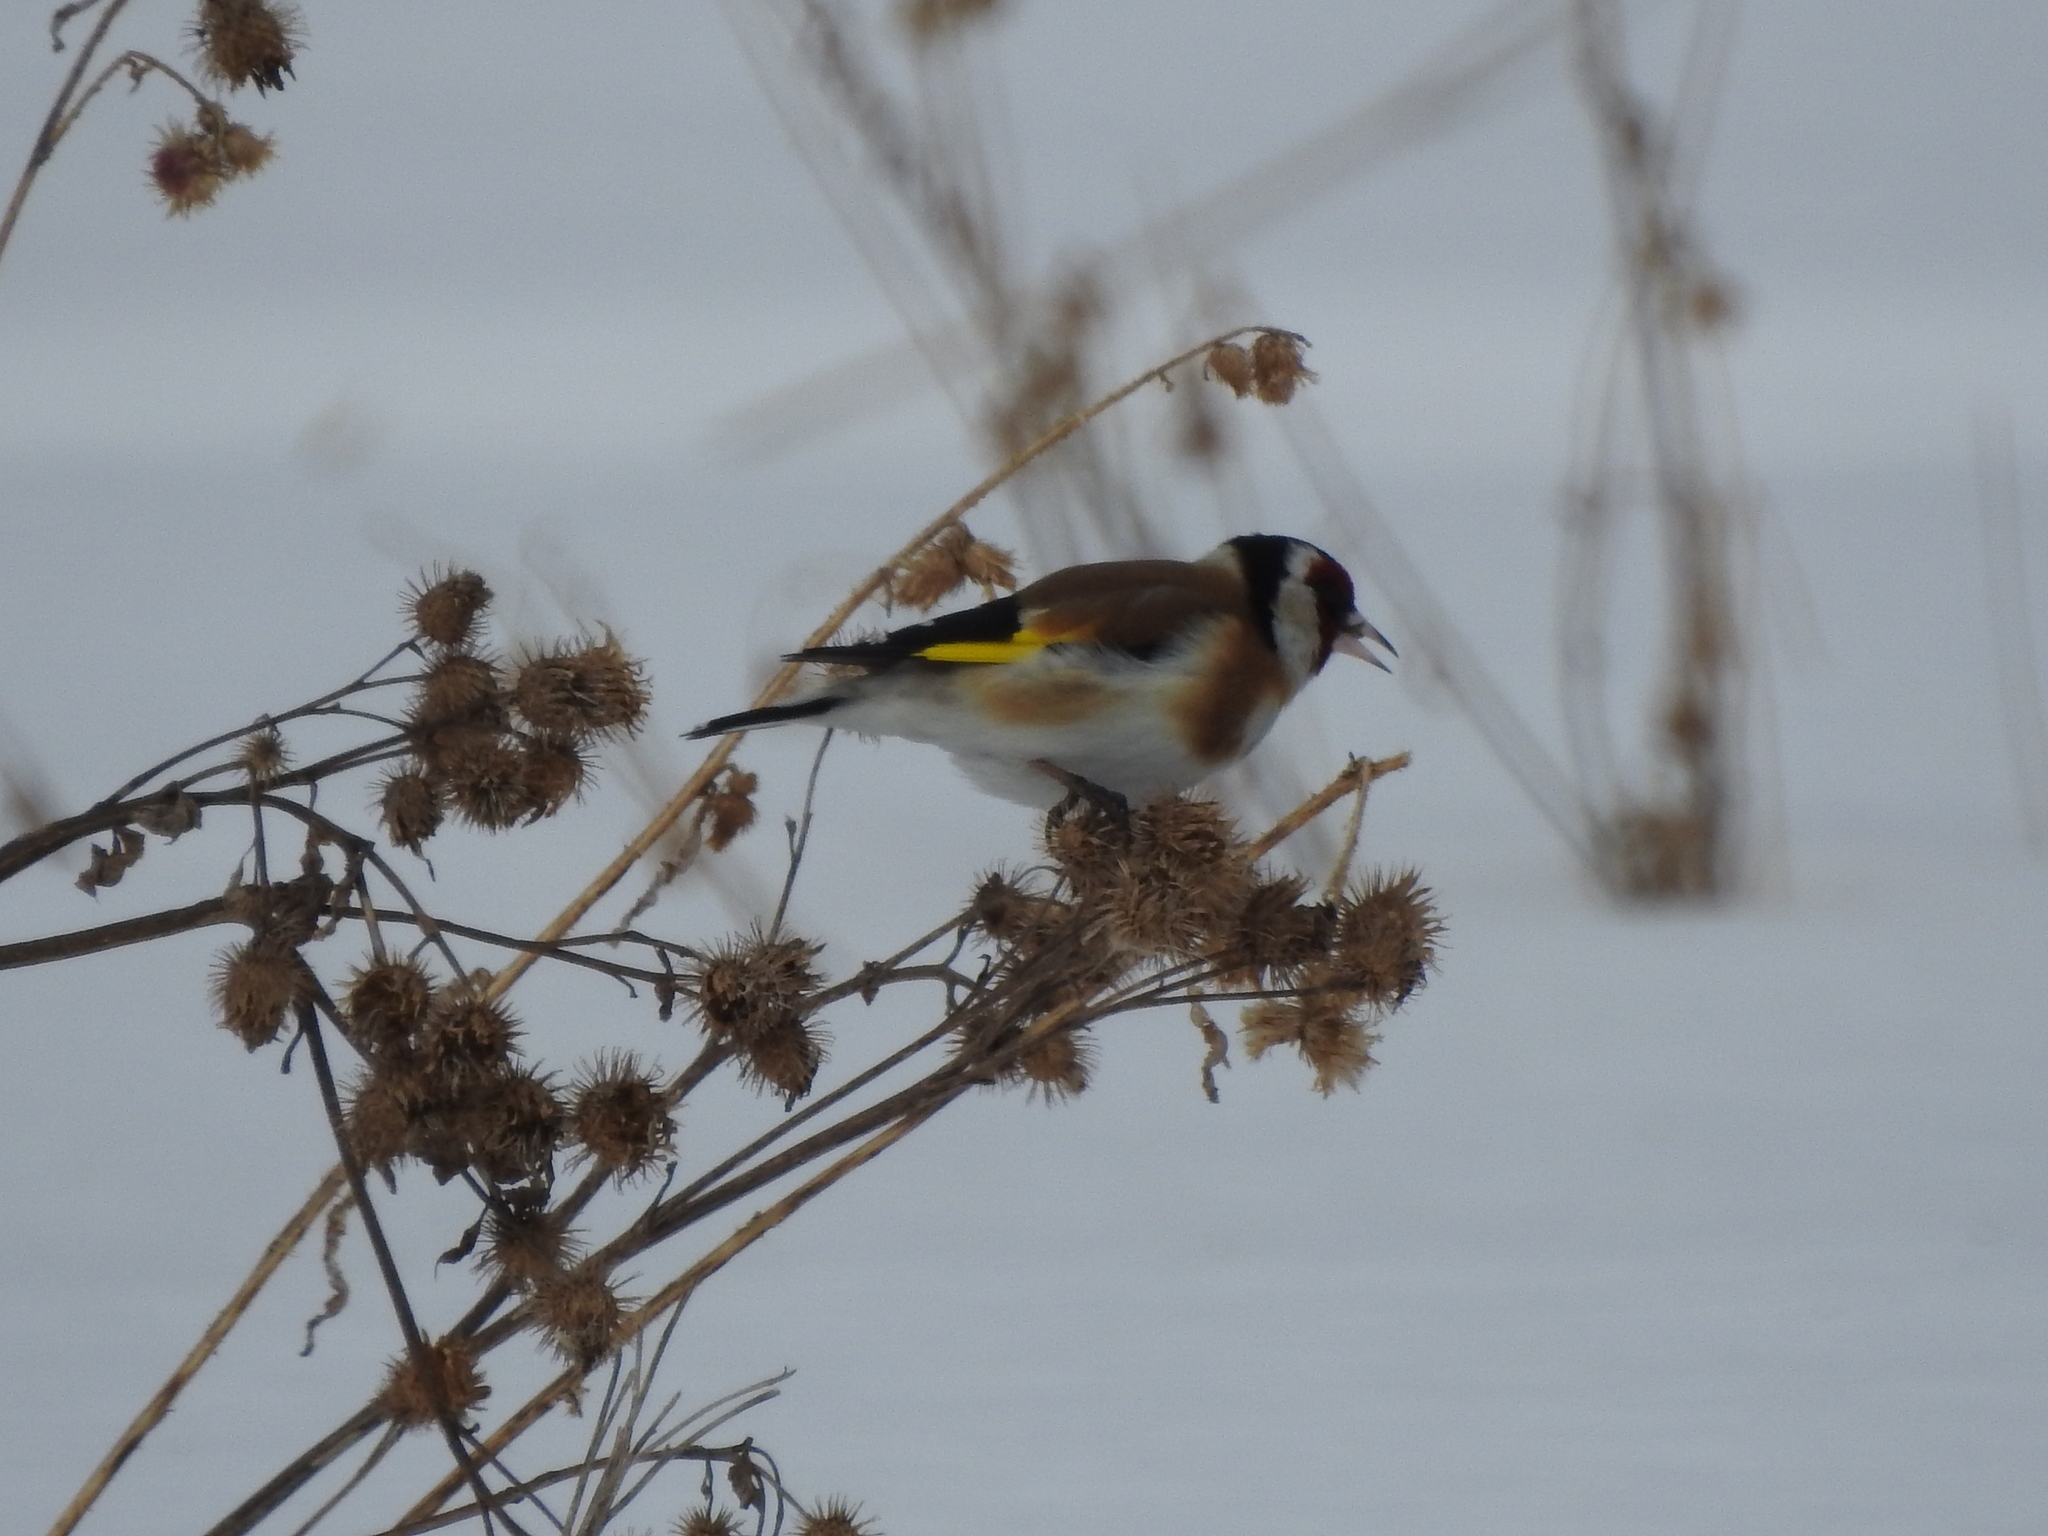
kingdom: Animalia
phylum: Chordata
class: Aves
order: Passeriformes
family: Fringillidae
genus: Carduelis
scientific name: Carduelis carduelis
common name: European goldfinch
